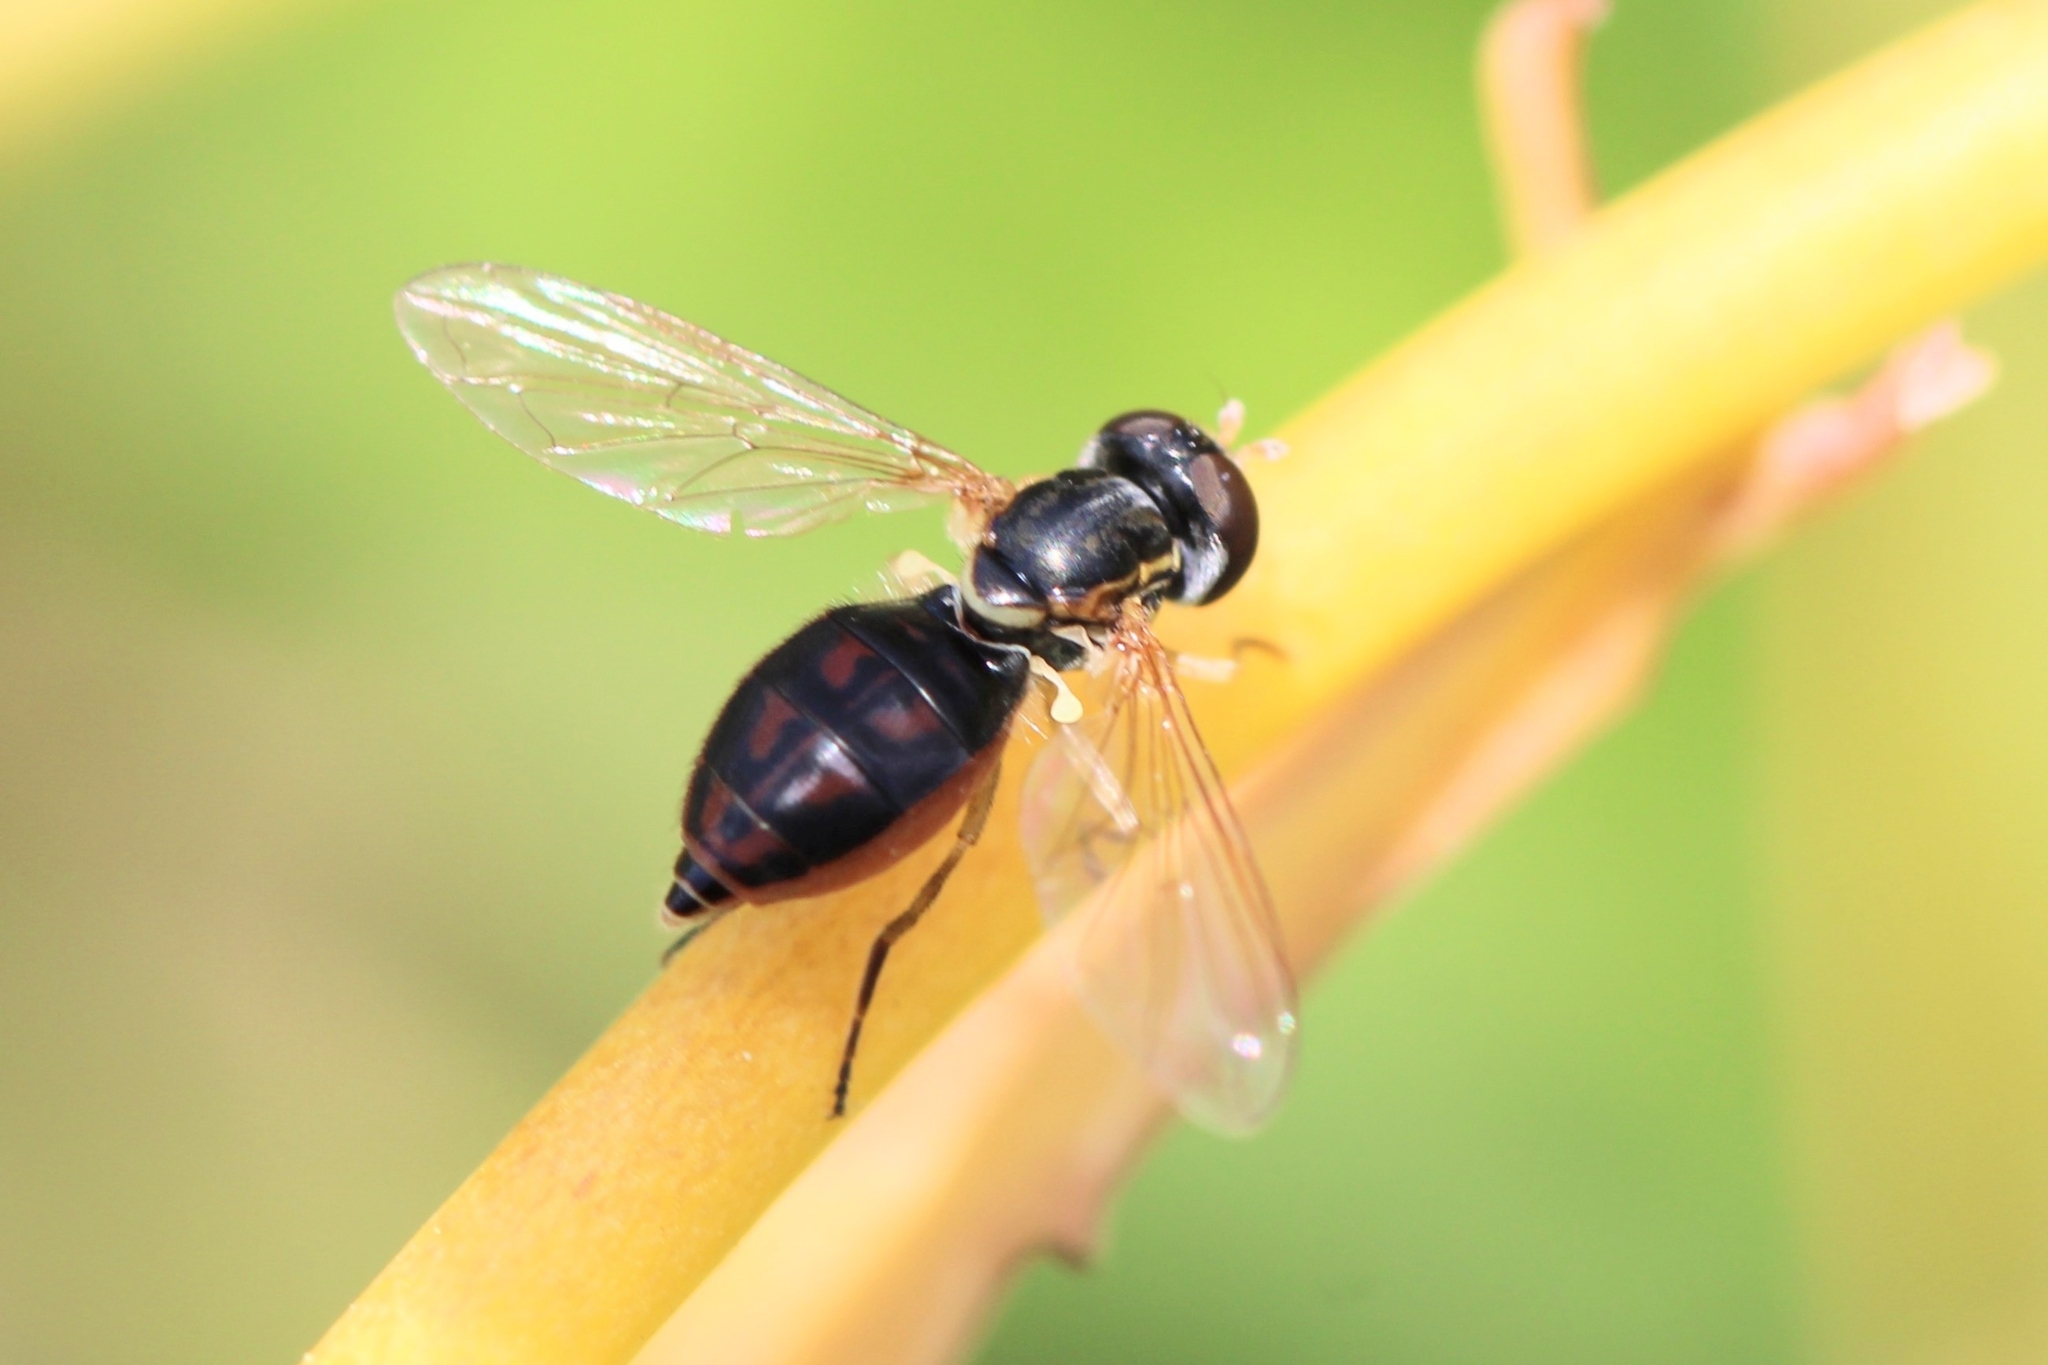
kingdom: Animalia
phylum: Arthropoda
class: Insecta
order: Diptera
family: Syrphidae
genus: Toxomerus
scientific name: Toxomerus marginatus
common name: Syrphid fly
